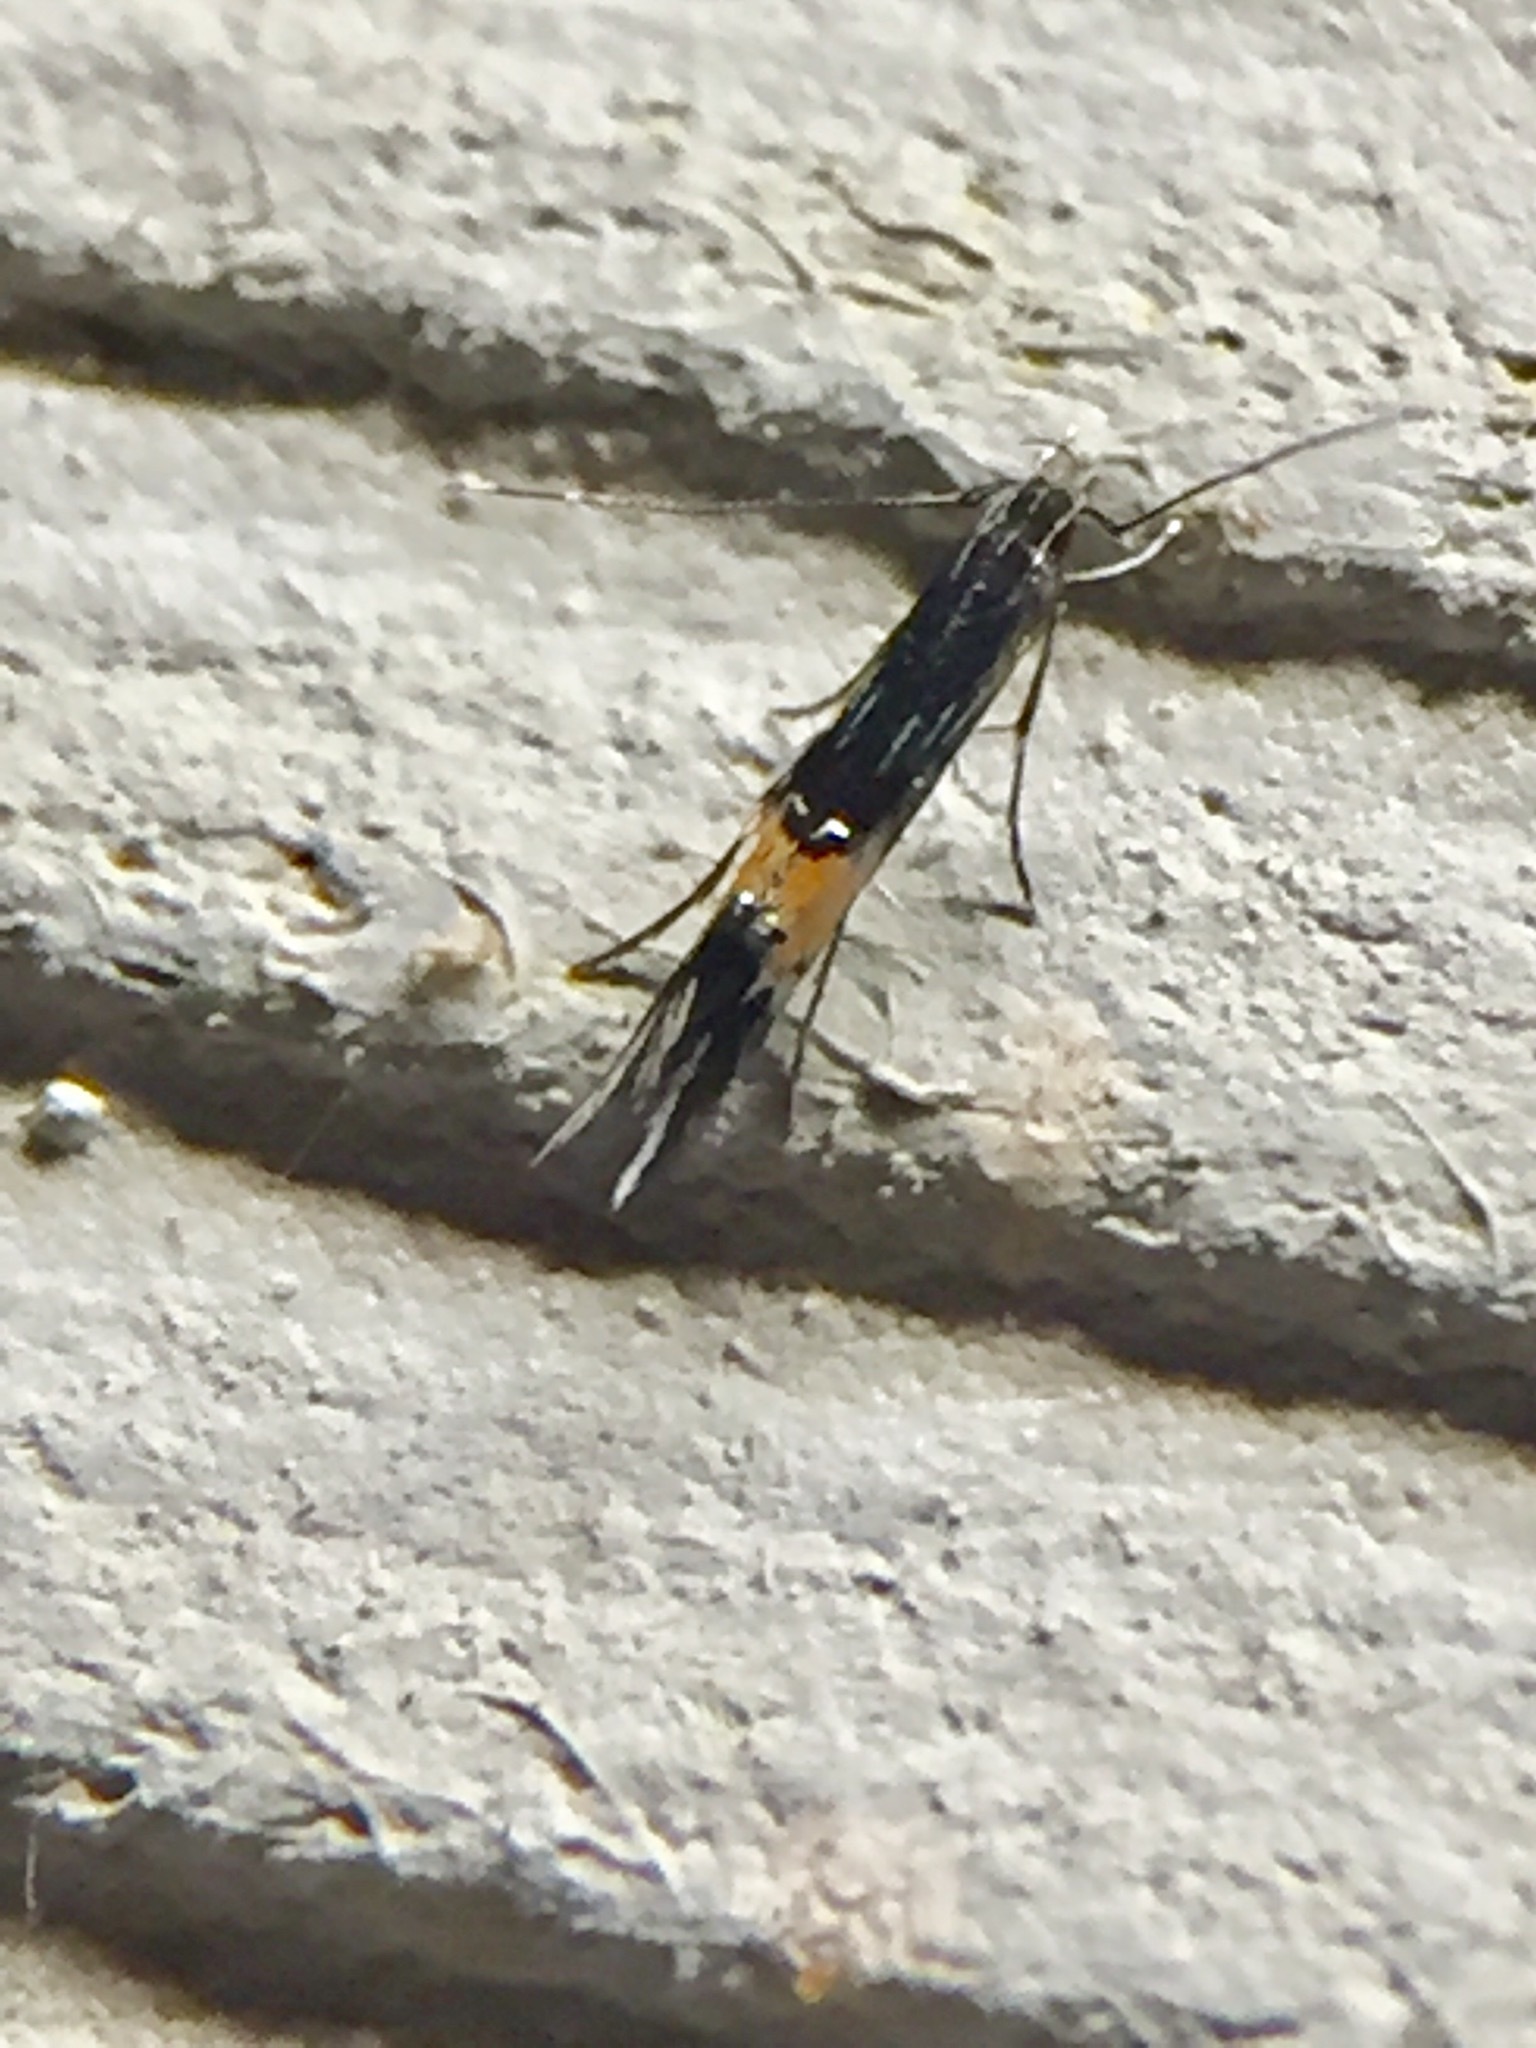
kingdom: Animalia
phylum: Arthropoda
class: Insecta
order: Lepidoptera
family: Cosmopterigidae
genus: Cosmopterix
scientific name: Cosmopterix attenuatella
